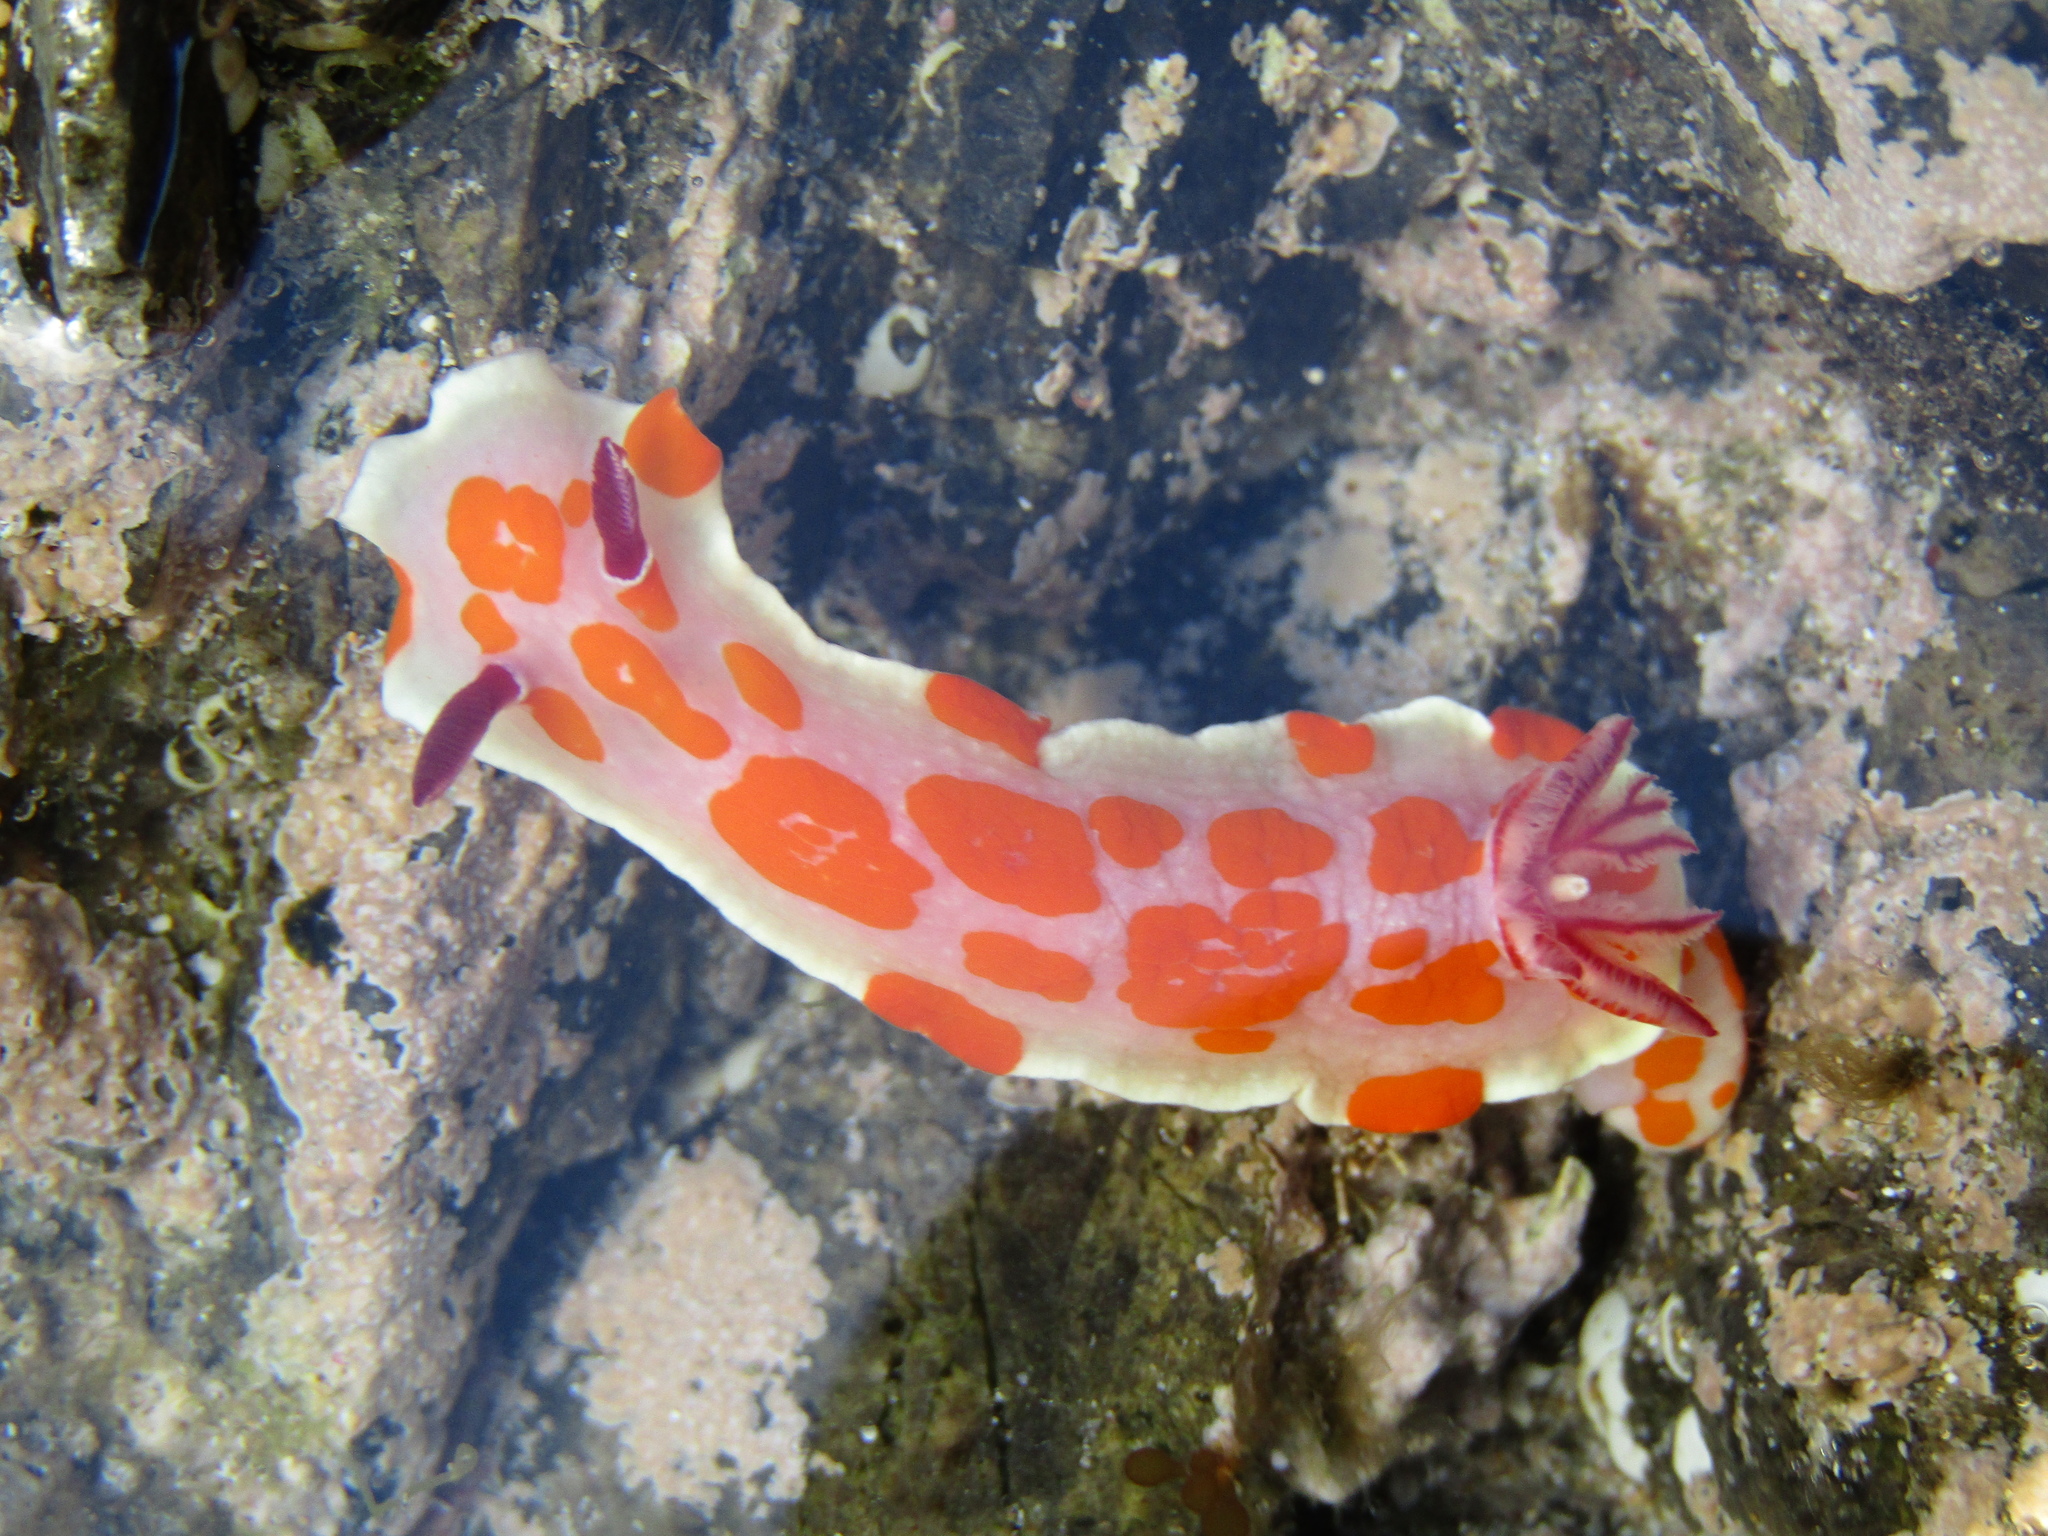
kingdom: Animalia
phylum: Mollusca
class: Gastropoda
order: Nudibranchia
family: Chromodorididae
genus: Ceratosoma
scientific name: Ceratosoma amoenum
